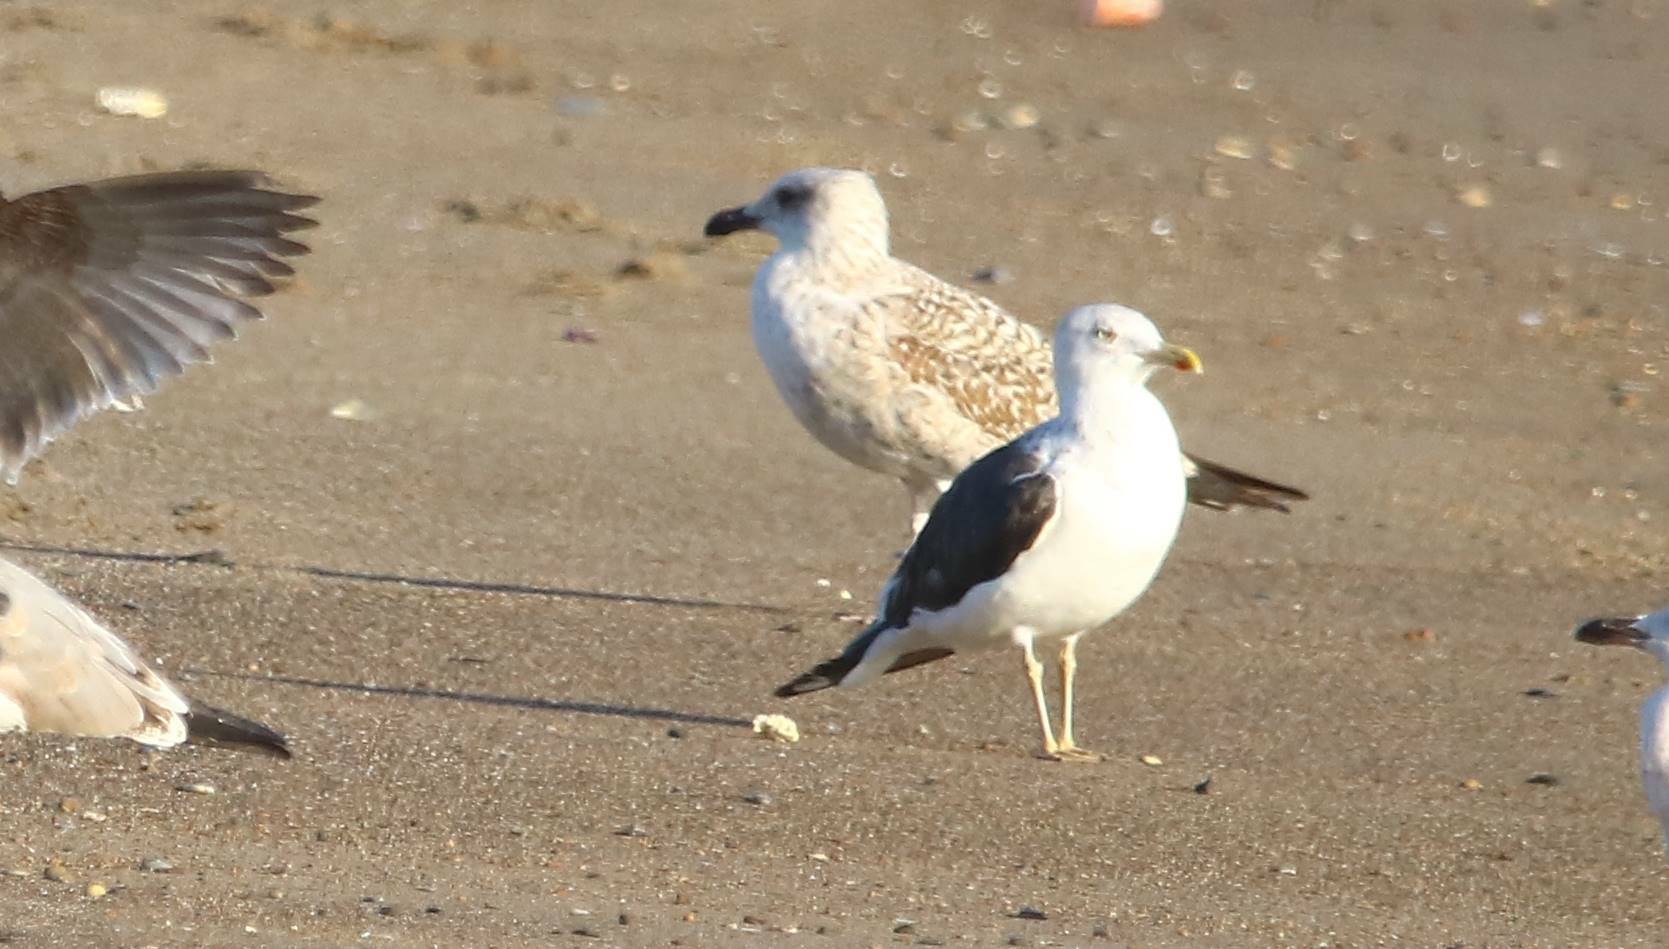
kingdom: Animalia
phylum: Chordata
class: Aves
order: Charadriiformes
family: Laridae
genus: Larus
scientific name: Larus fuscus
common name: Lesser black-backed gull
